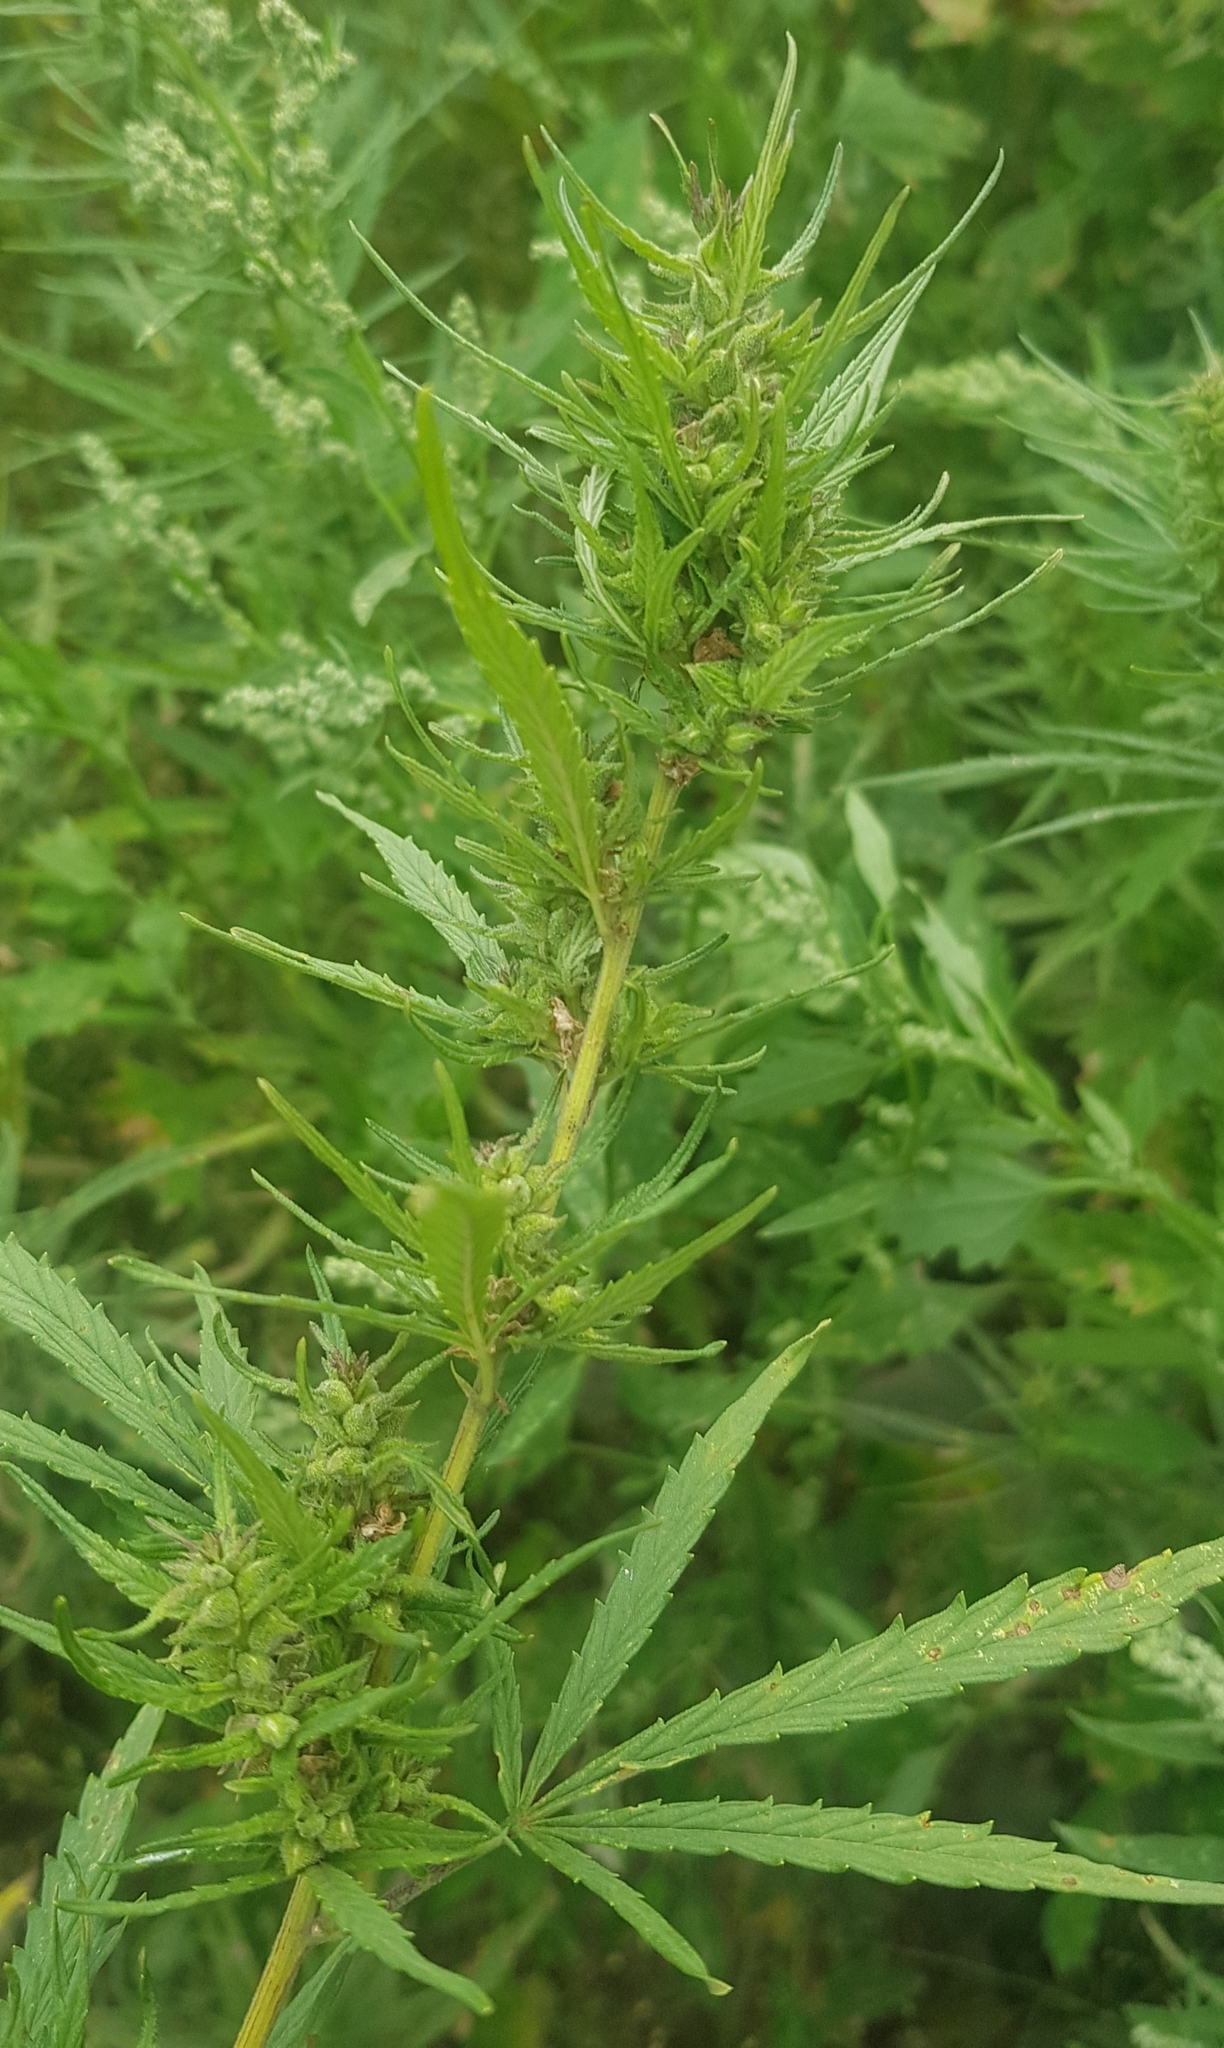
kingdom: Plantae
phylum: Tracheophyta
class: Magnoliopsida
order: Rosales
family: Cannabaceae
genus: Cannabis
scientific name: Cannabis sativa
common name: Hemp
